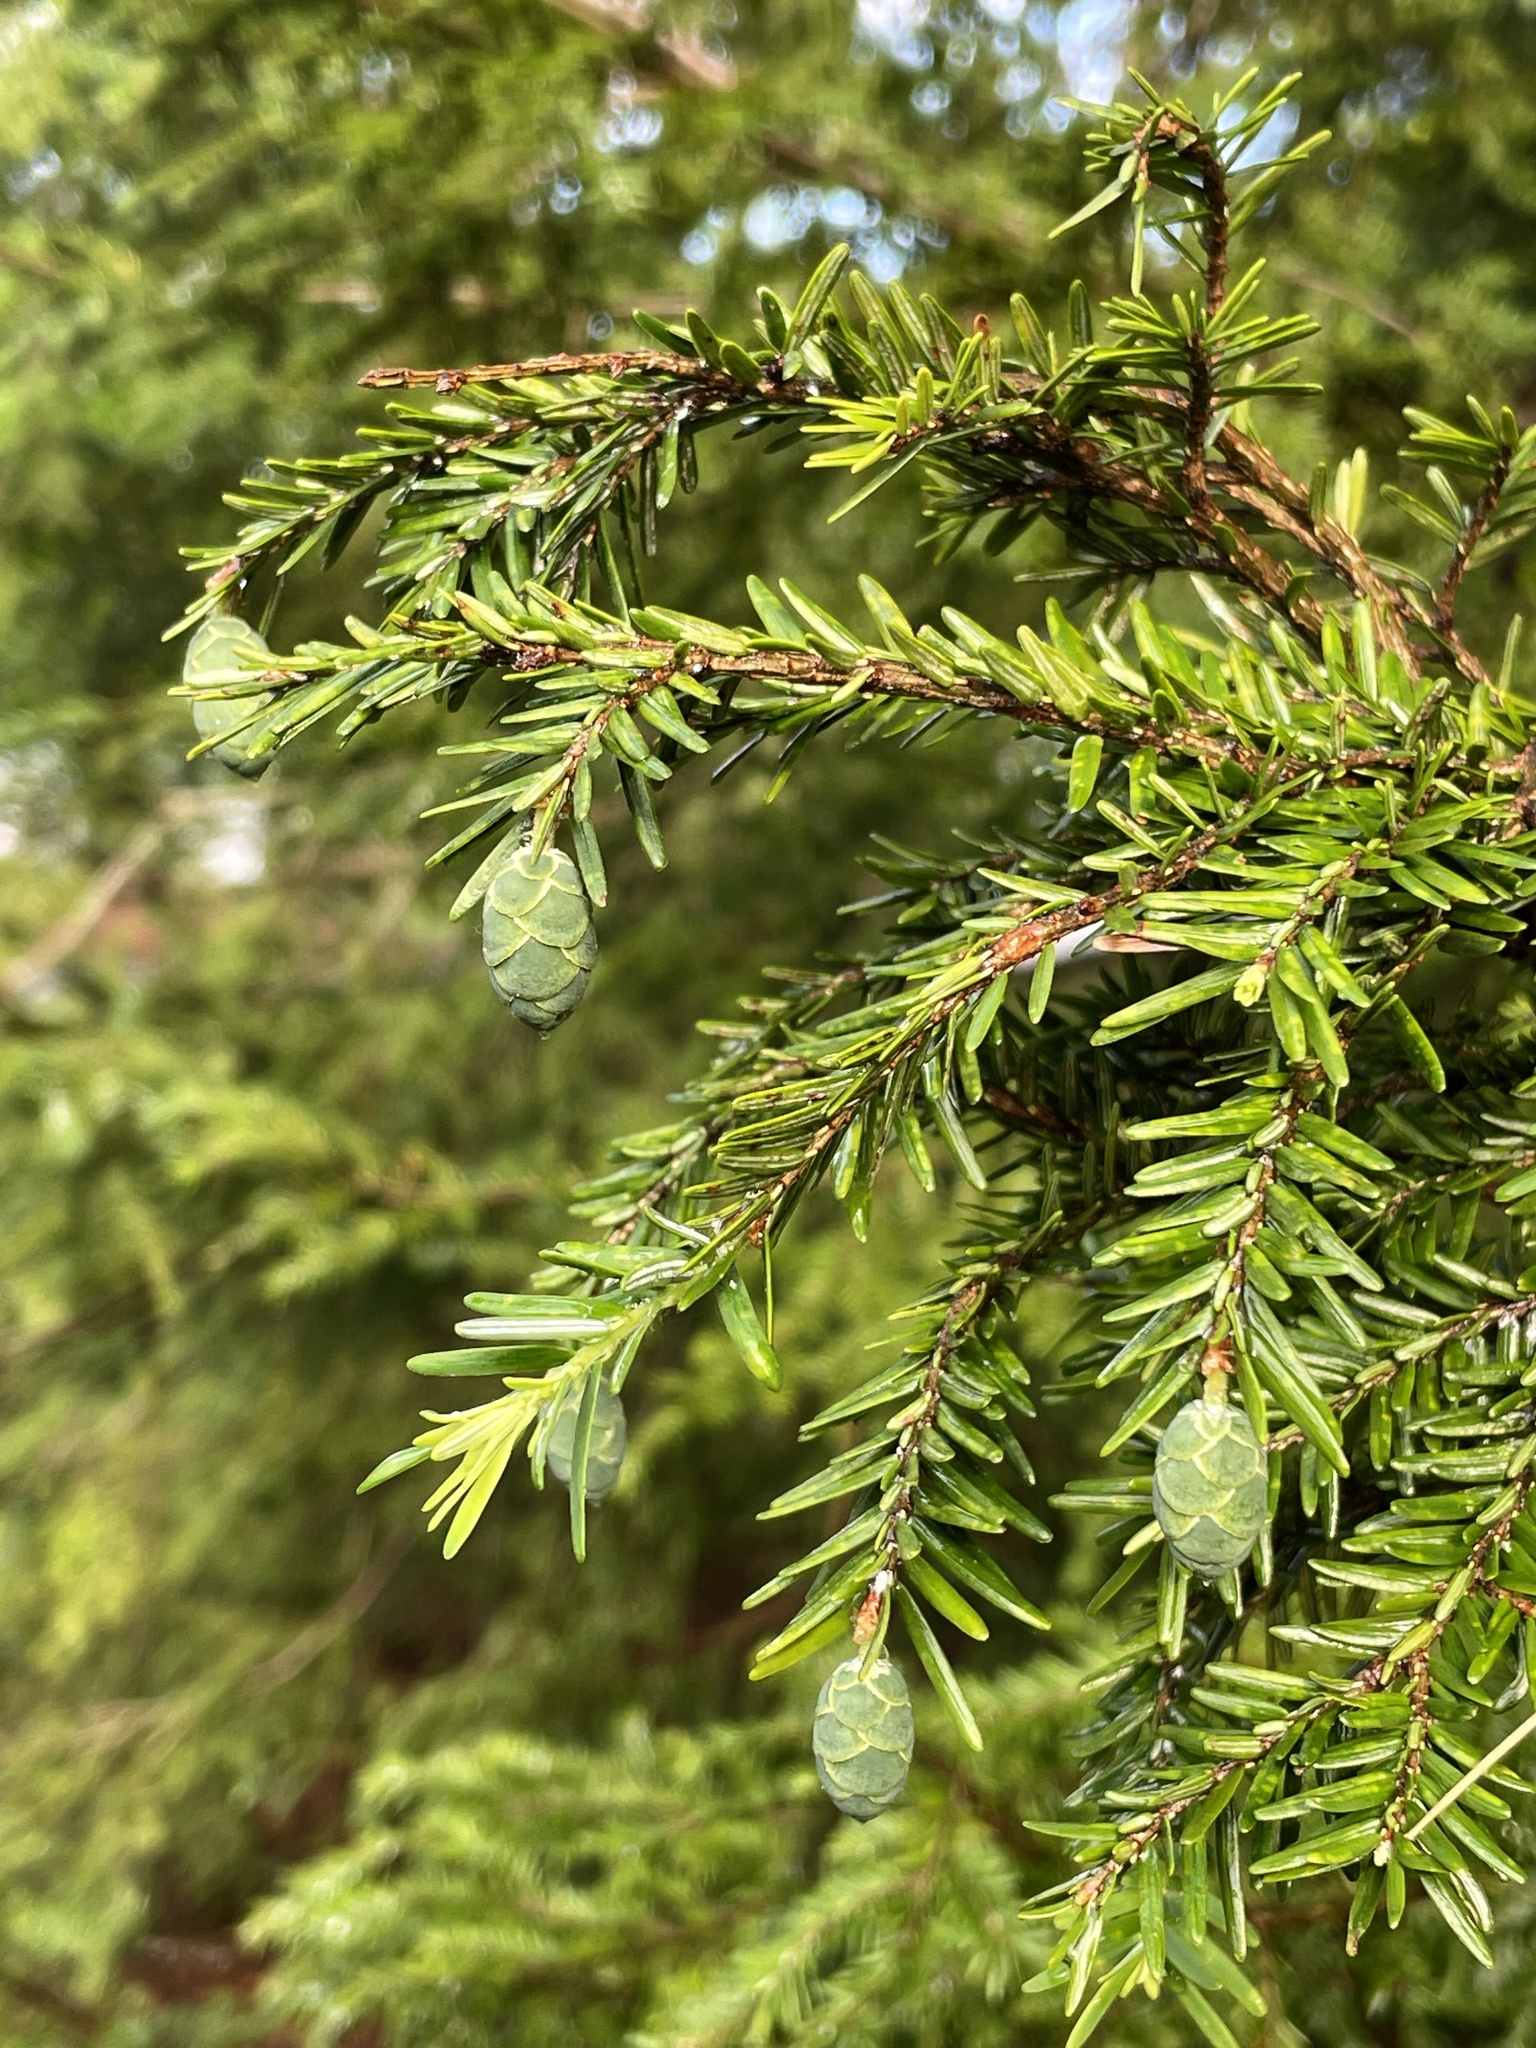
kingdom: Plantae
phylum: Tracheophyta
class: Pinopsida
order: Pinales
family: Pinaceae
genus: Tsuga
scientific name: Tsuga canadensis
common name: Eastern hemlock
